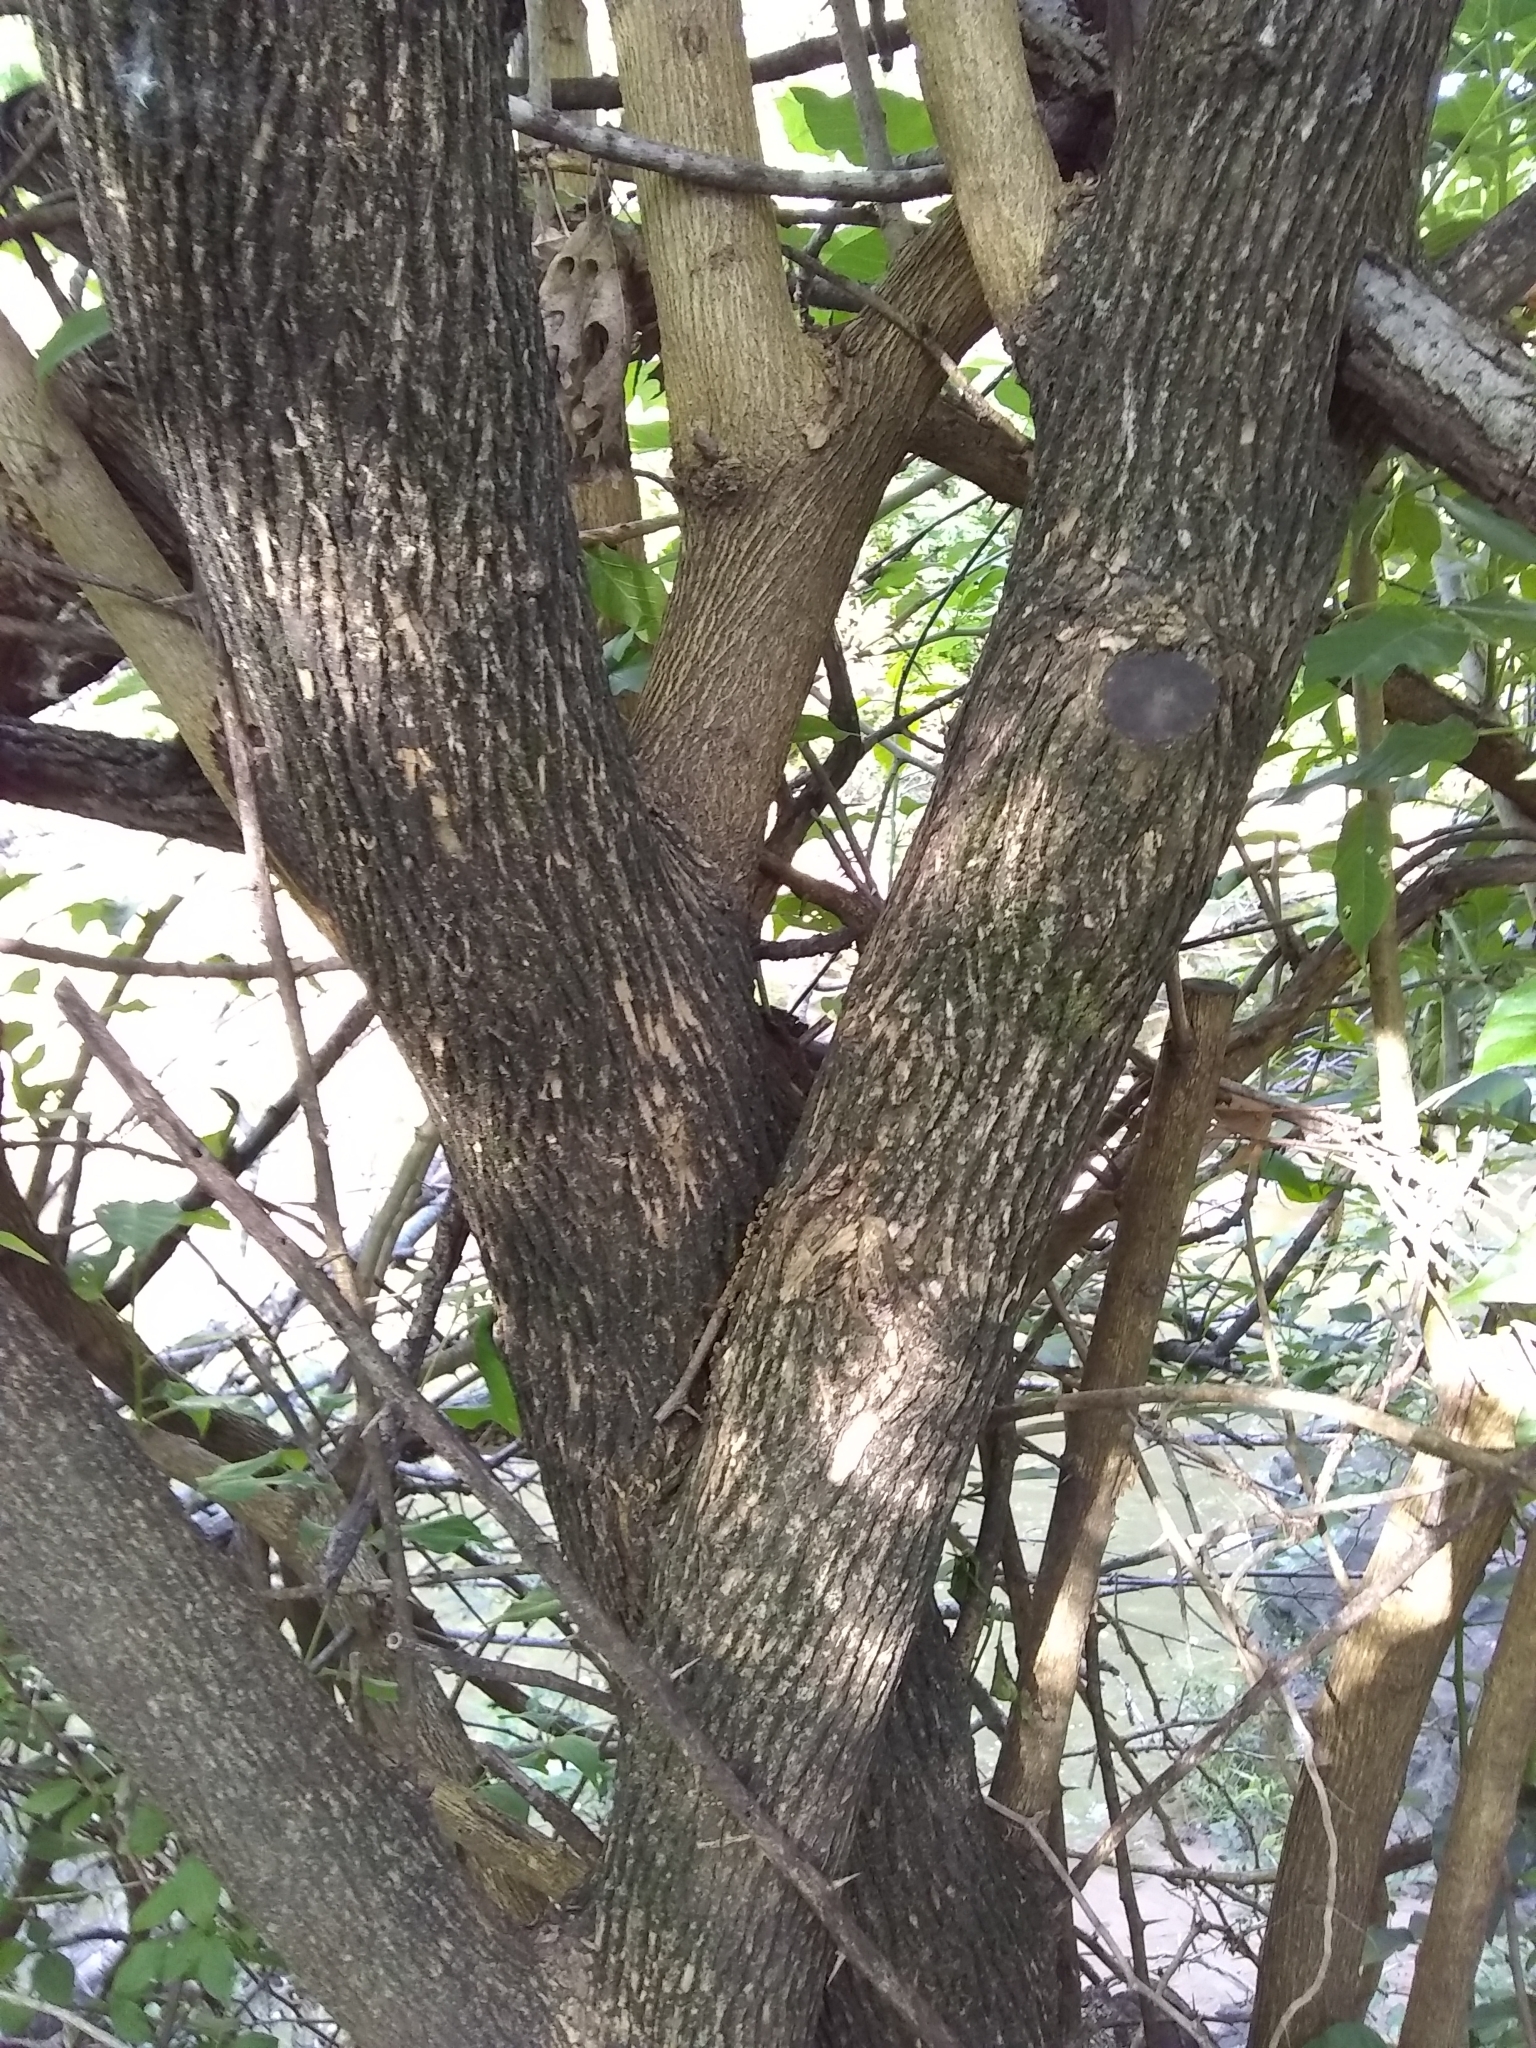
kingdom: Plantae
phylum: Tracheophyta
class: Magnoliopsida
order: Cornales
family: Cornaceae
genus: Cornus
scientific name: Cornus drummondii
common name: Rough-leaf dogwood
